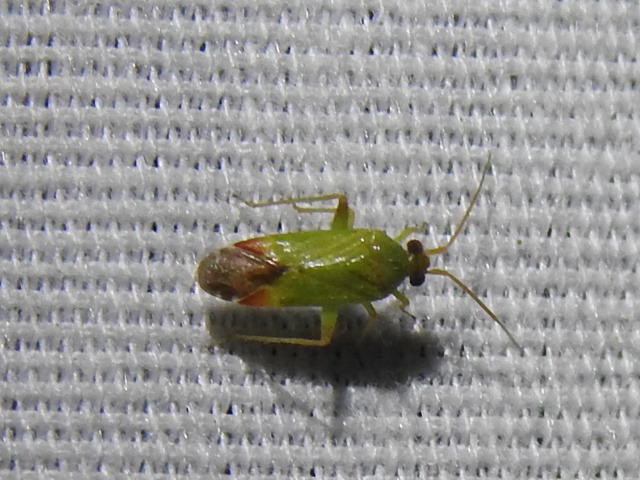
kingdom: Animalia
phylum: Arthropoda
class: Insecta
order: Hemiptera
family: Miridae
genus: Phytocoris
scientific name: Phytocoris vanduzeei
